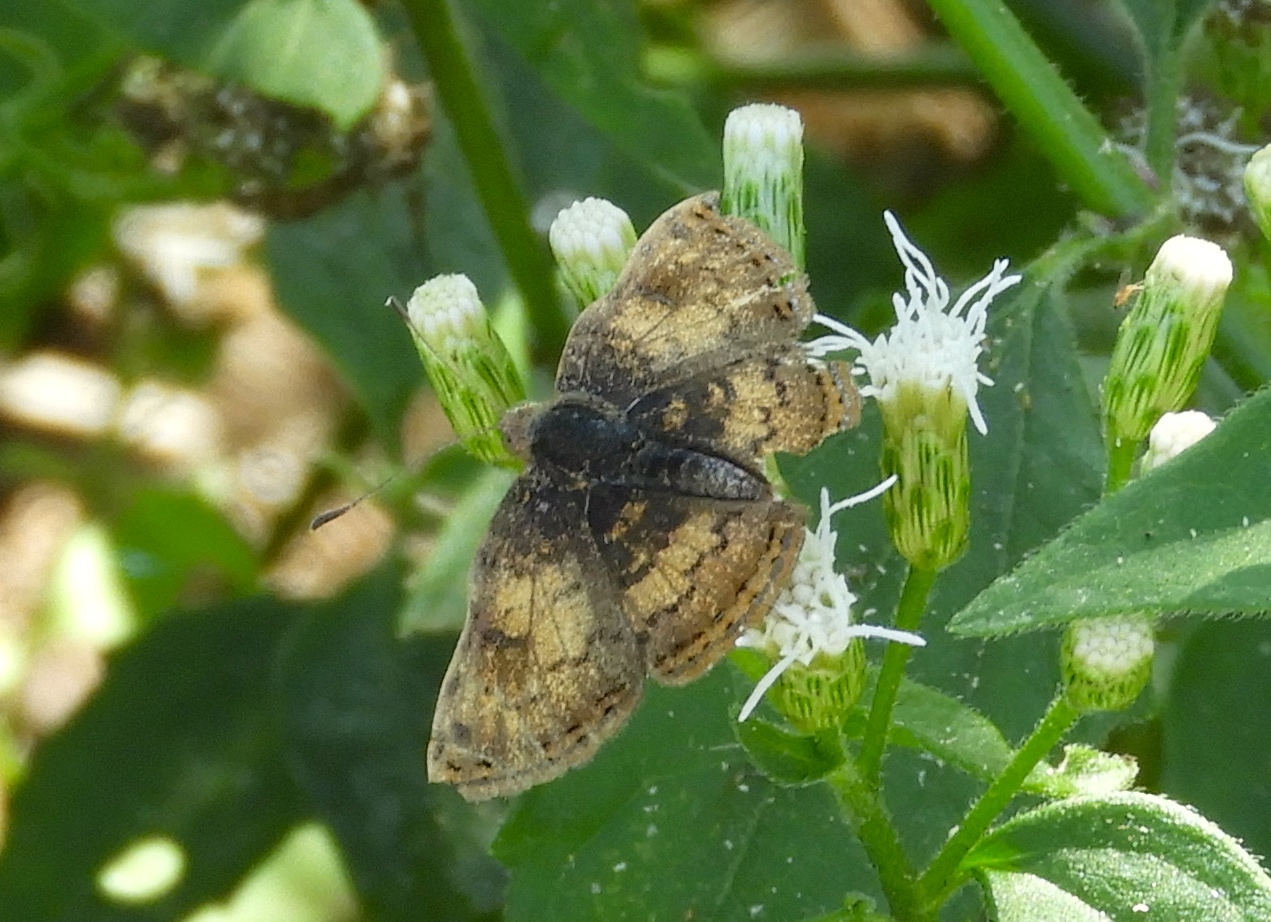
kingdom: Animalia
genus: Caria
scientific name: Caria ino
